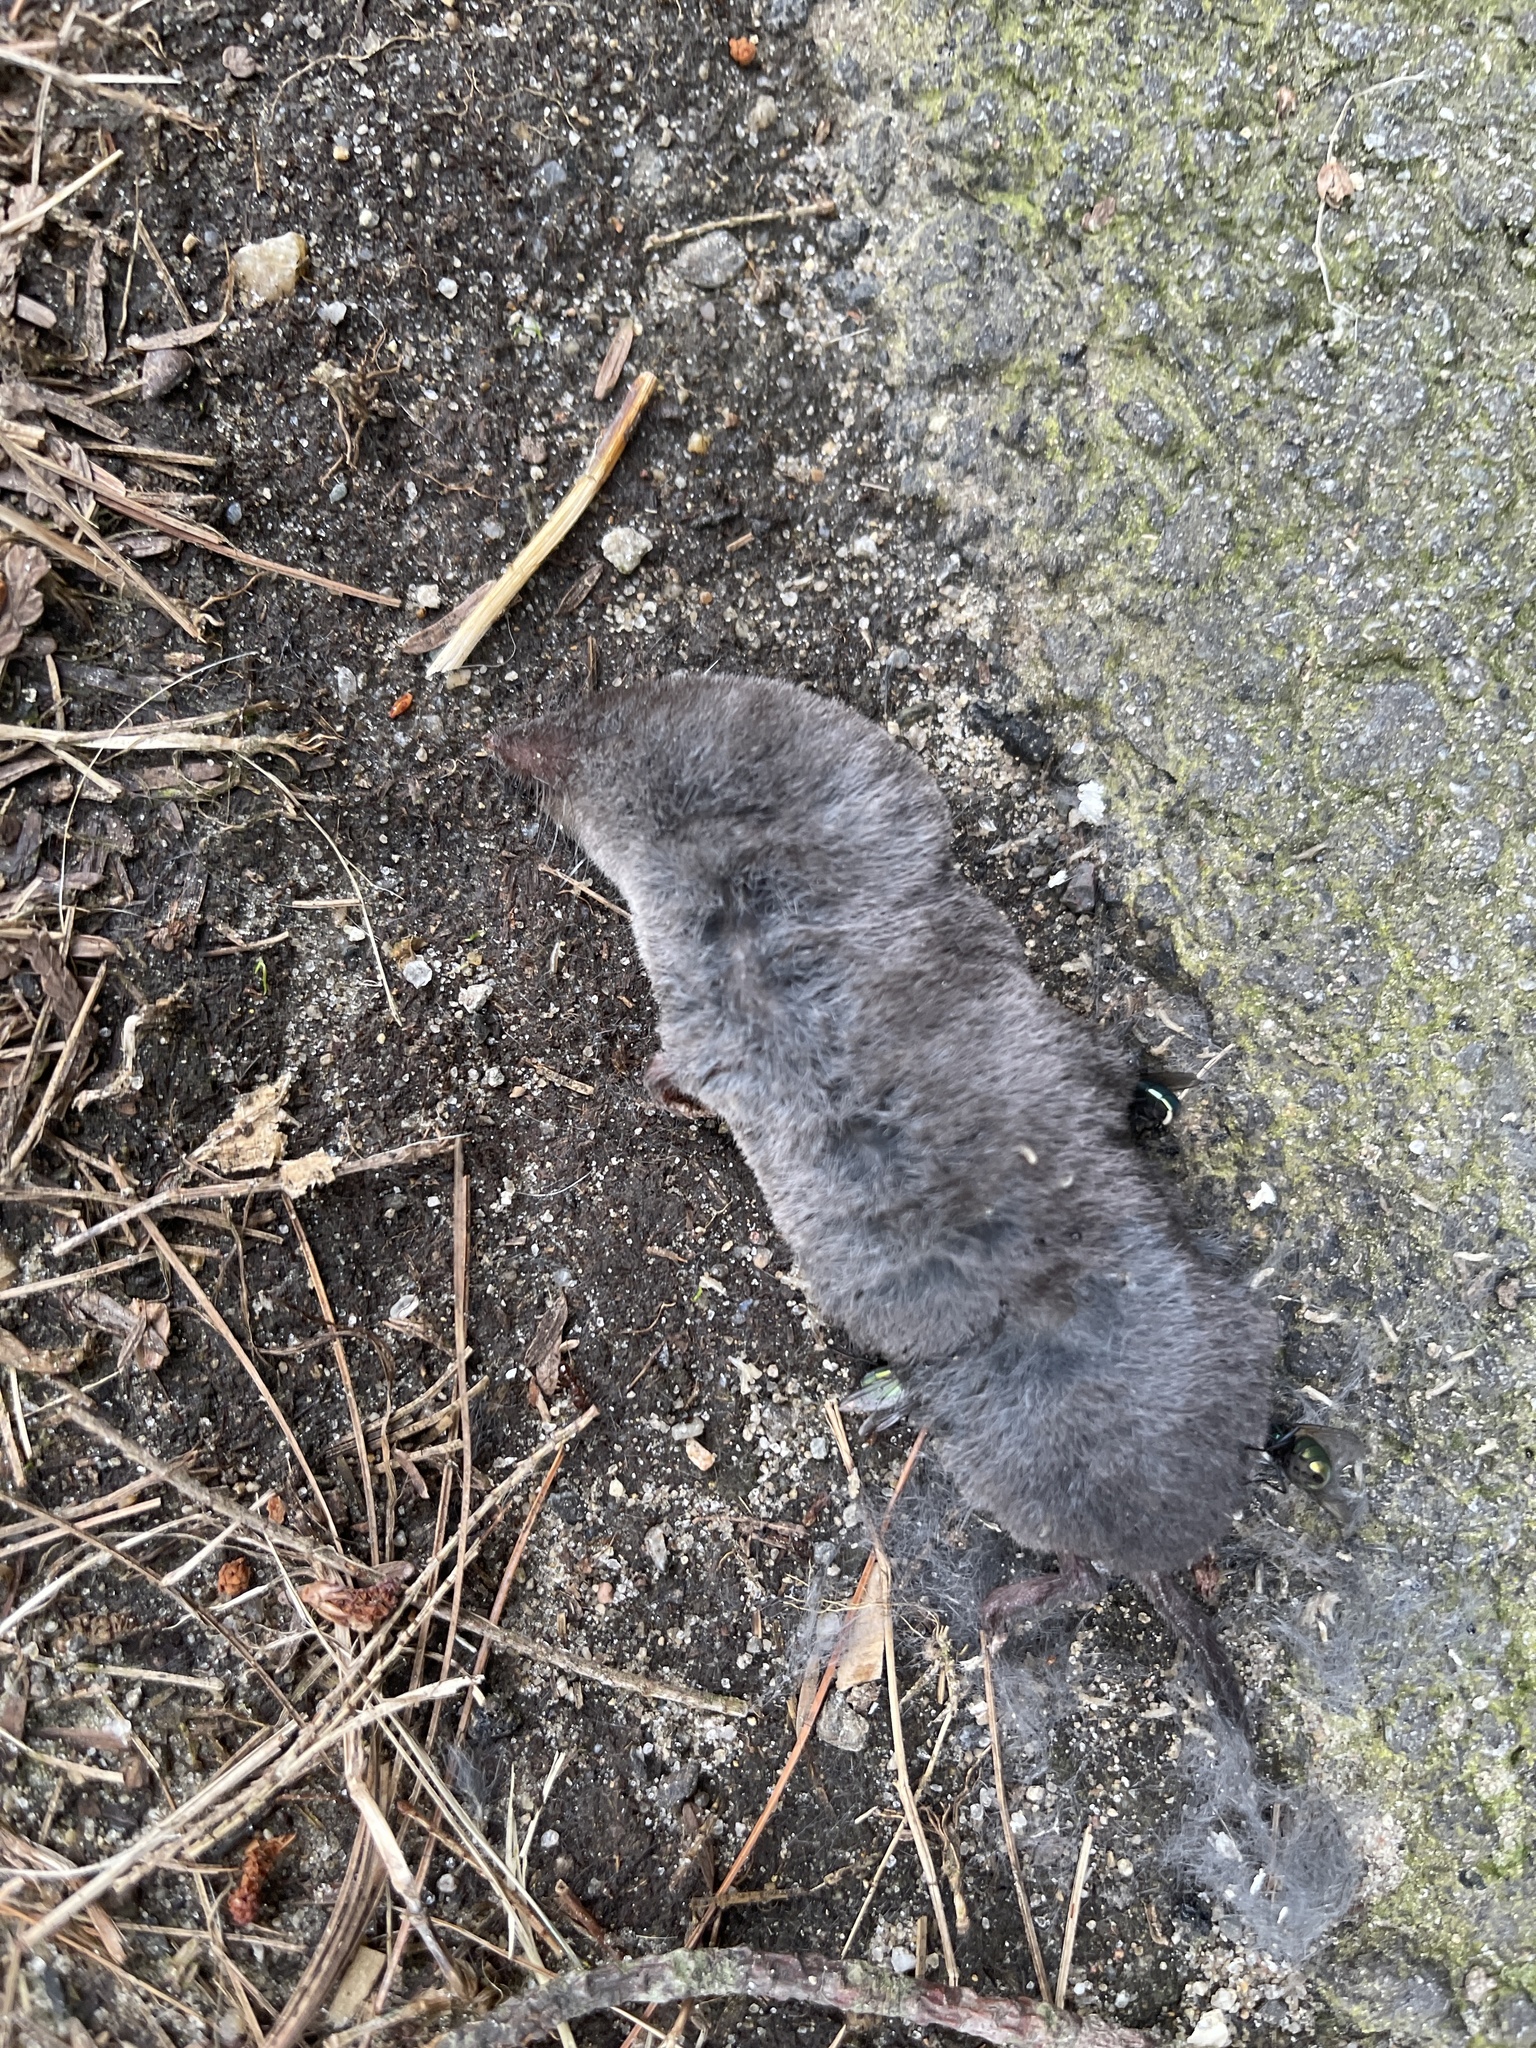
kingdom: Animalia
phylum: Chordata
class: Mammalia
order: Soricomorpha
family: Soricidae
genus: Blarina
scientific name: Blarina brevicauda
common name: Northern short-tailed shrew
